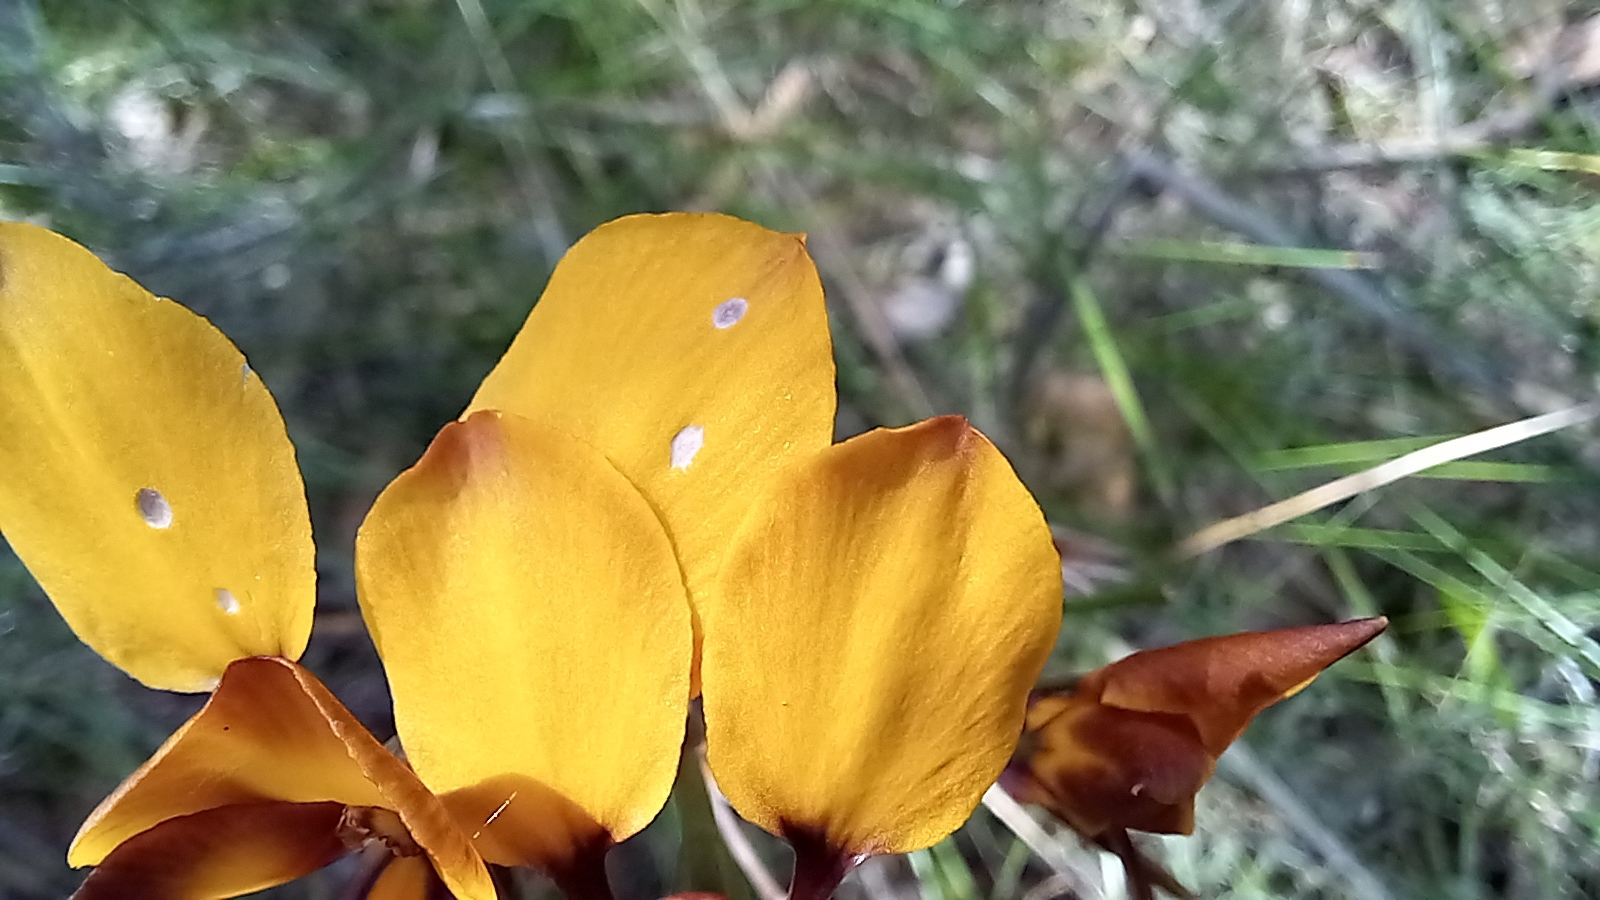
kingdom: Plantae
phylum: Tracheophyta
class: Liliopsida
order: Asparagales
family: Orchidaceae
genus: Diuris
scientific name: Diuris magnifica
